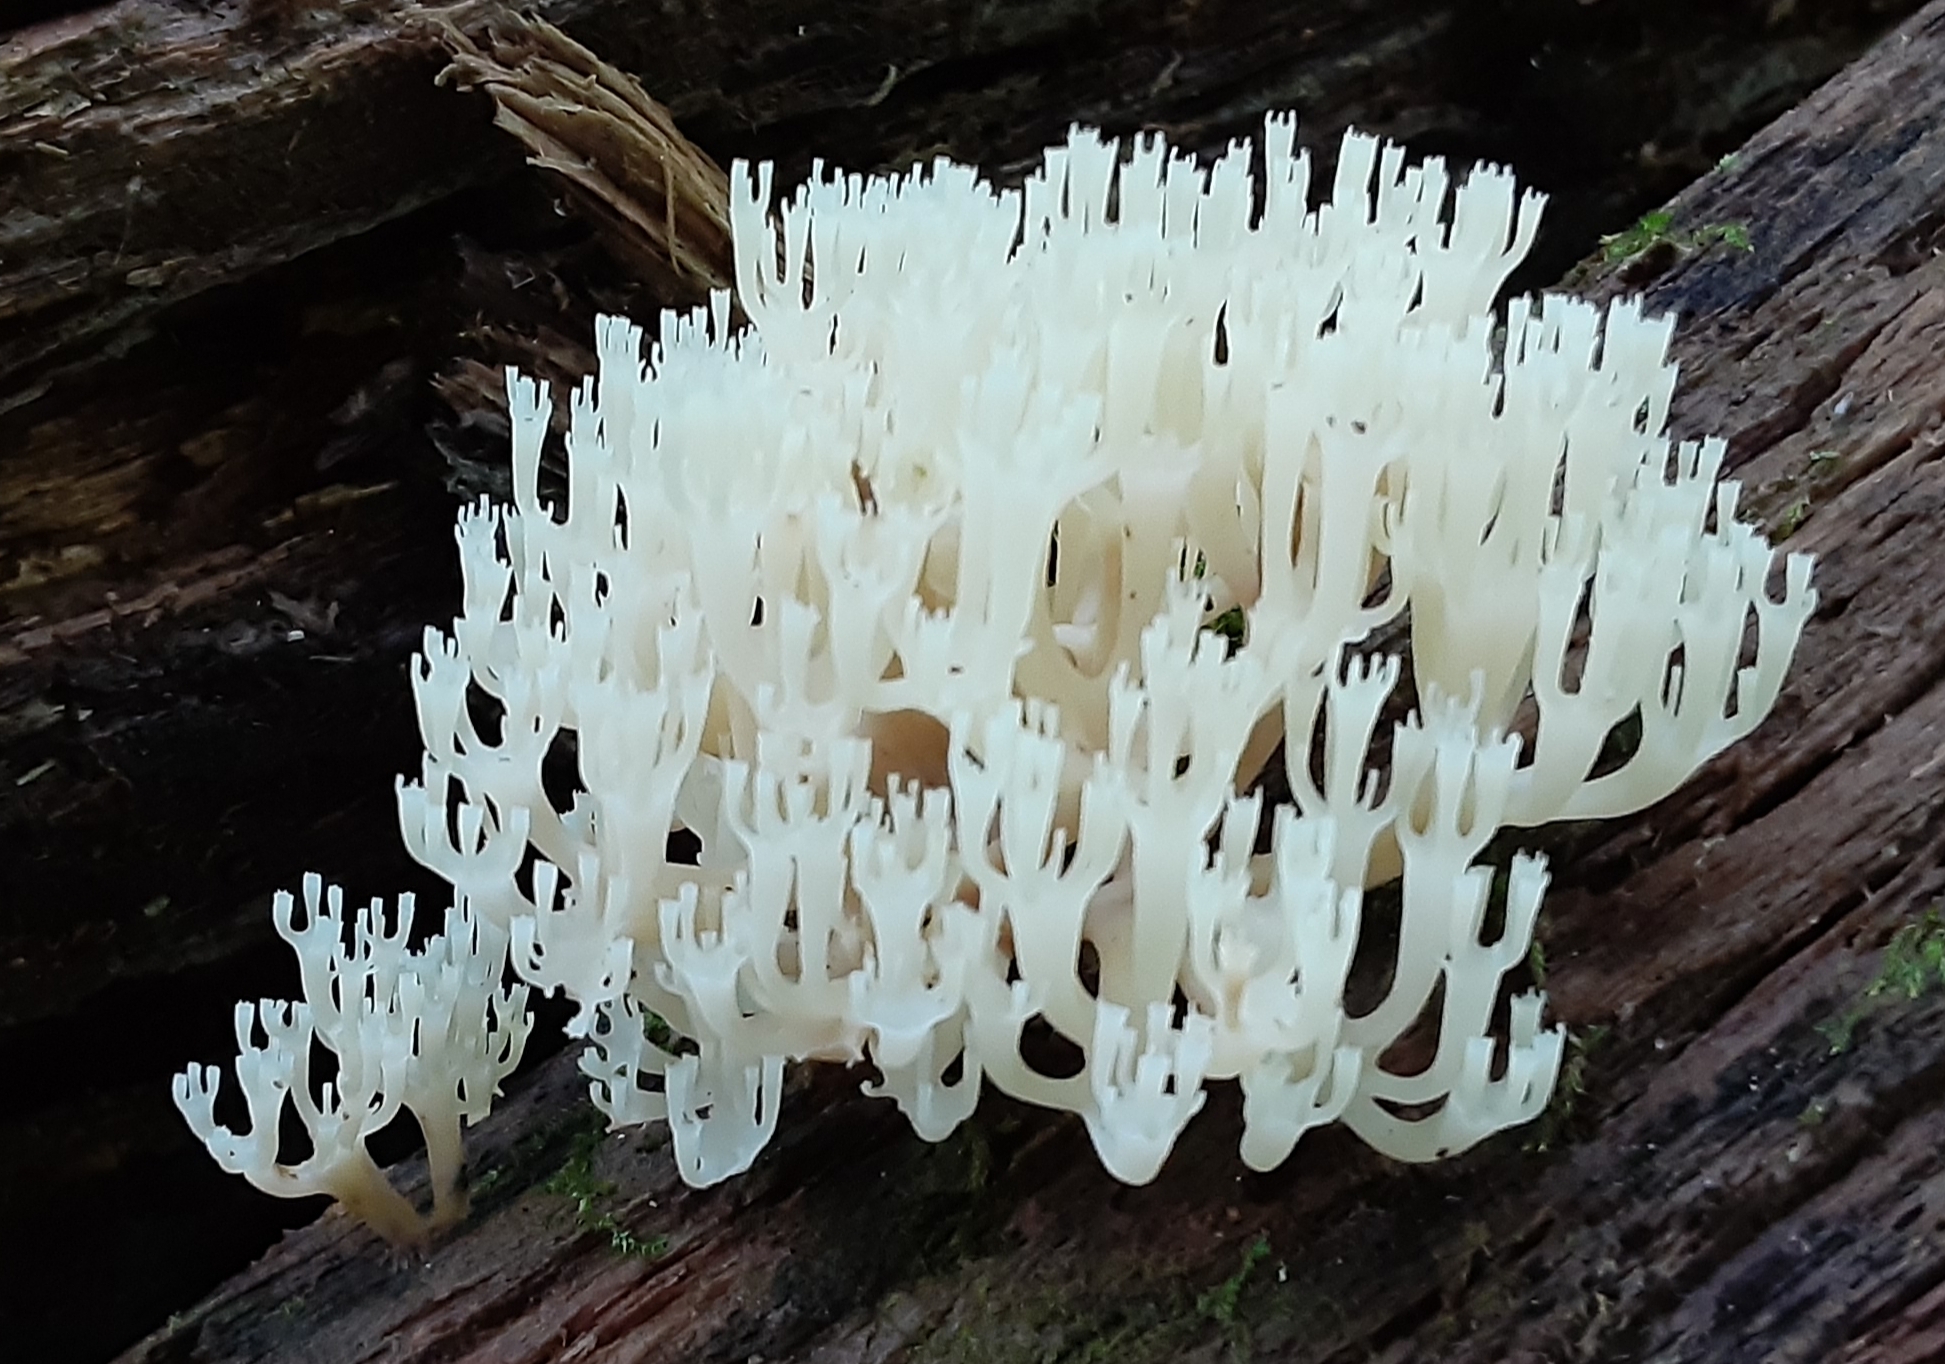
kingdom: Fungi
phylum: Basidiomycota
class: Agaricomycetes
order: Russulales
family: Auriscalpiaceae
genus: Artomyces
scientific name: Artomyces pyxidatus
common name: Crown-tipped coral fungus
